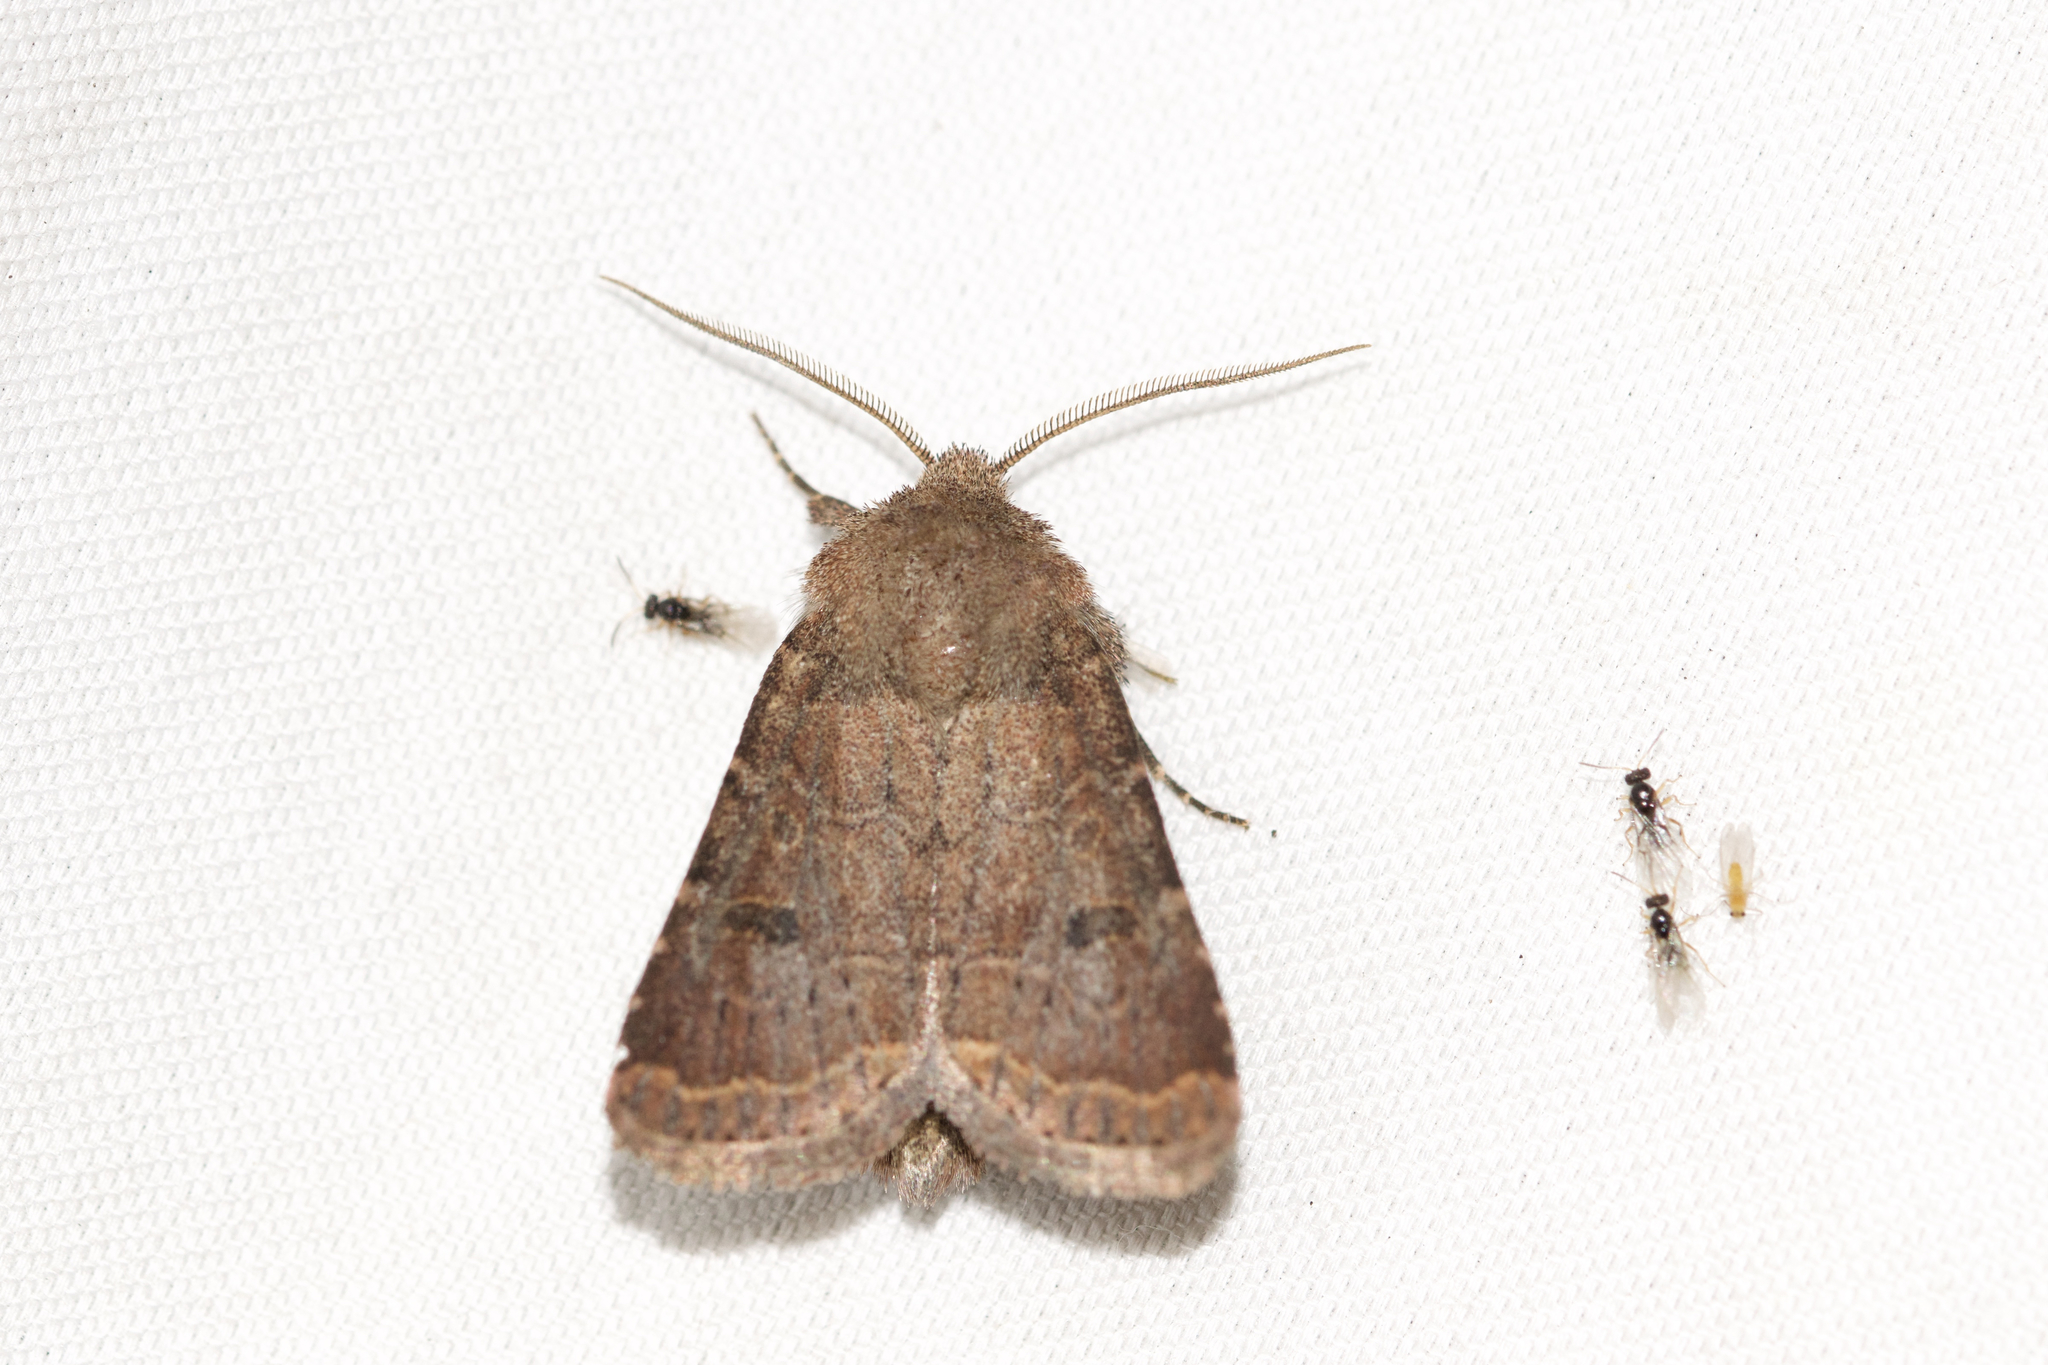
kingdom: Animalia
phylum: Arthropoda
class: Insecta
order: Lepidoptera
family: Noctuidae
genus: Trichopolia
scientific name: Trichopolia
